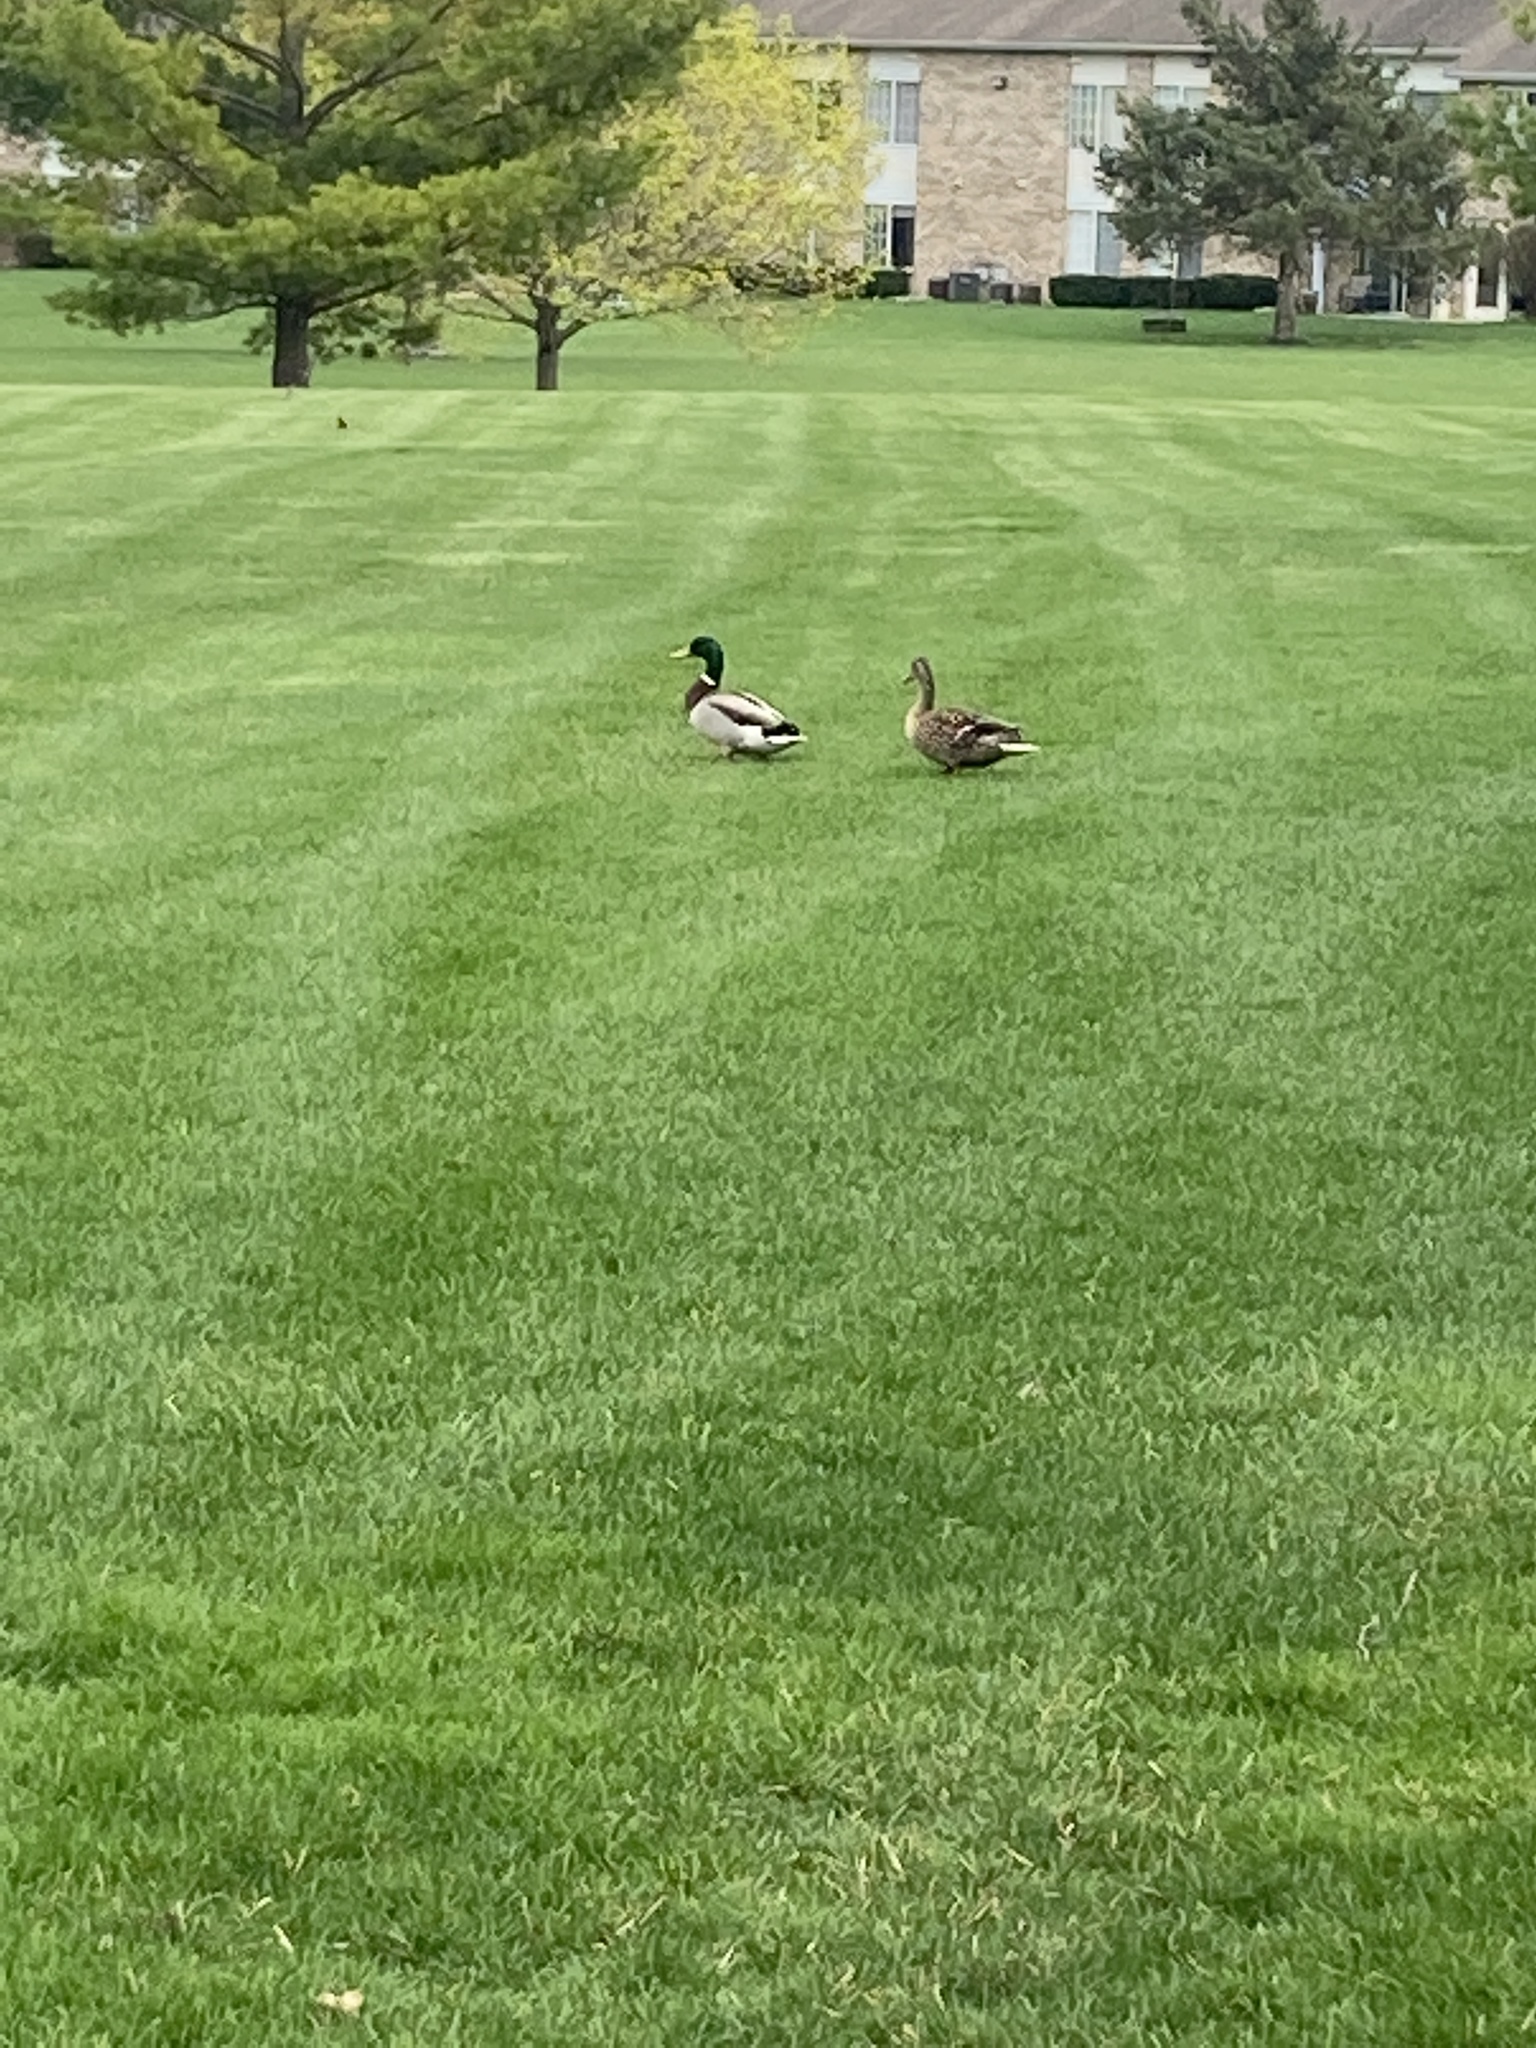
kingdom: Animalia
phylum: Chordata
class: Aves
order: Anseriformes
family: Anatidae
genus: Anas
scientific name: Anas platyrhynchos
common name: Mallard
